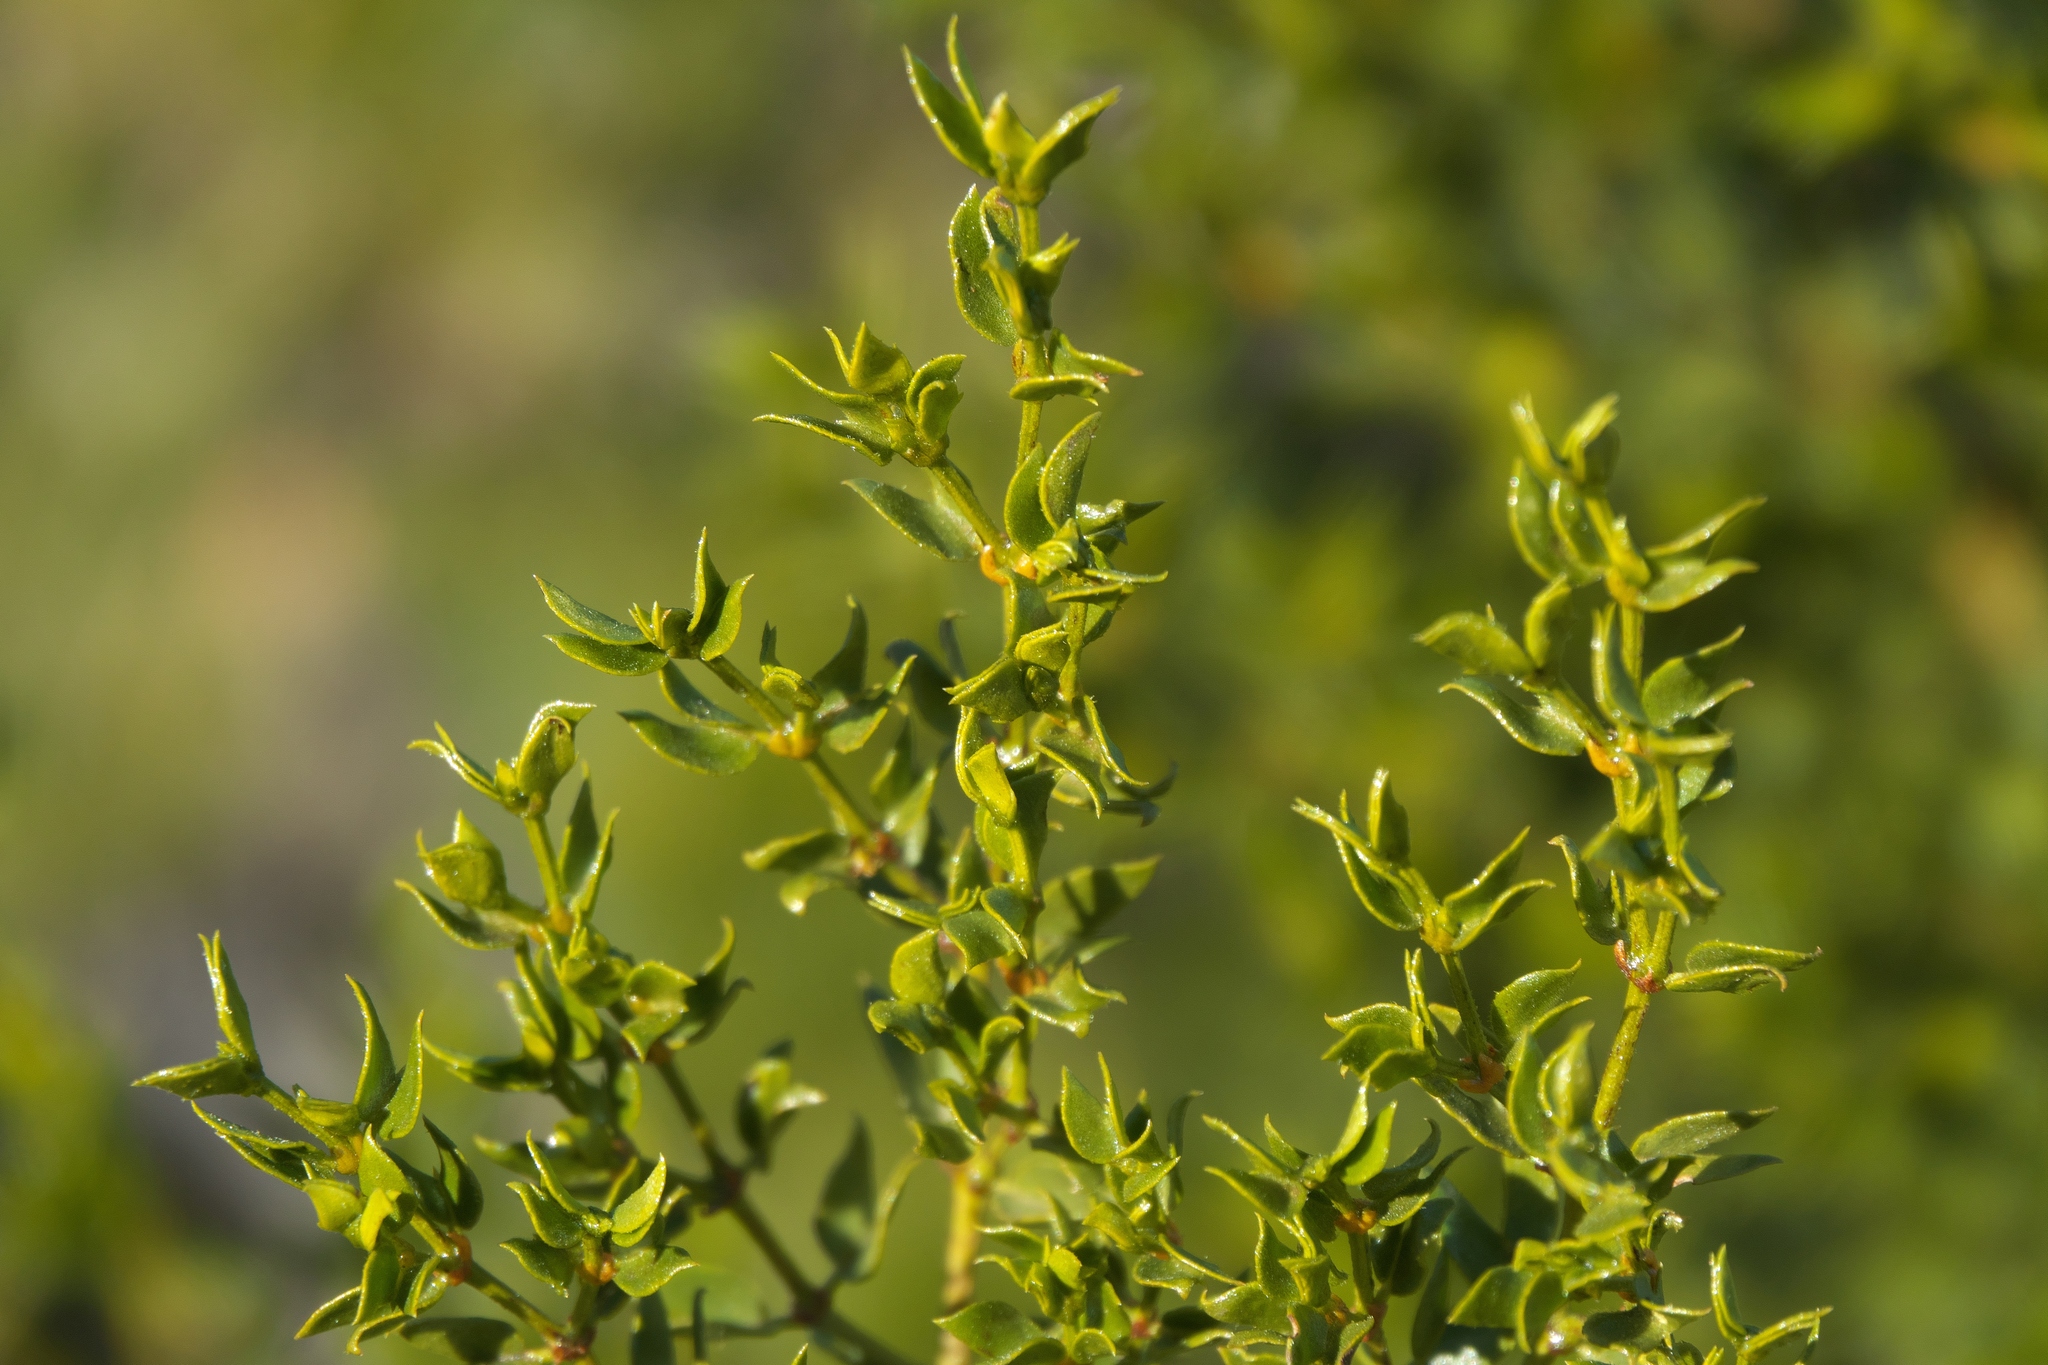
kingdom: Plantae
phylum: Tracheophyta
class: Magnoliopsida
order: Zygophyllales
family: Zygophyllaceae
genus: Larrea
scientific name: Larrea tridentata
